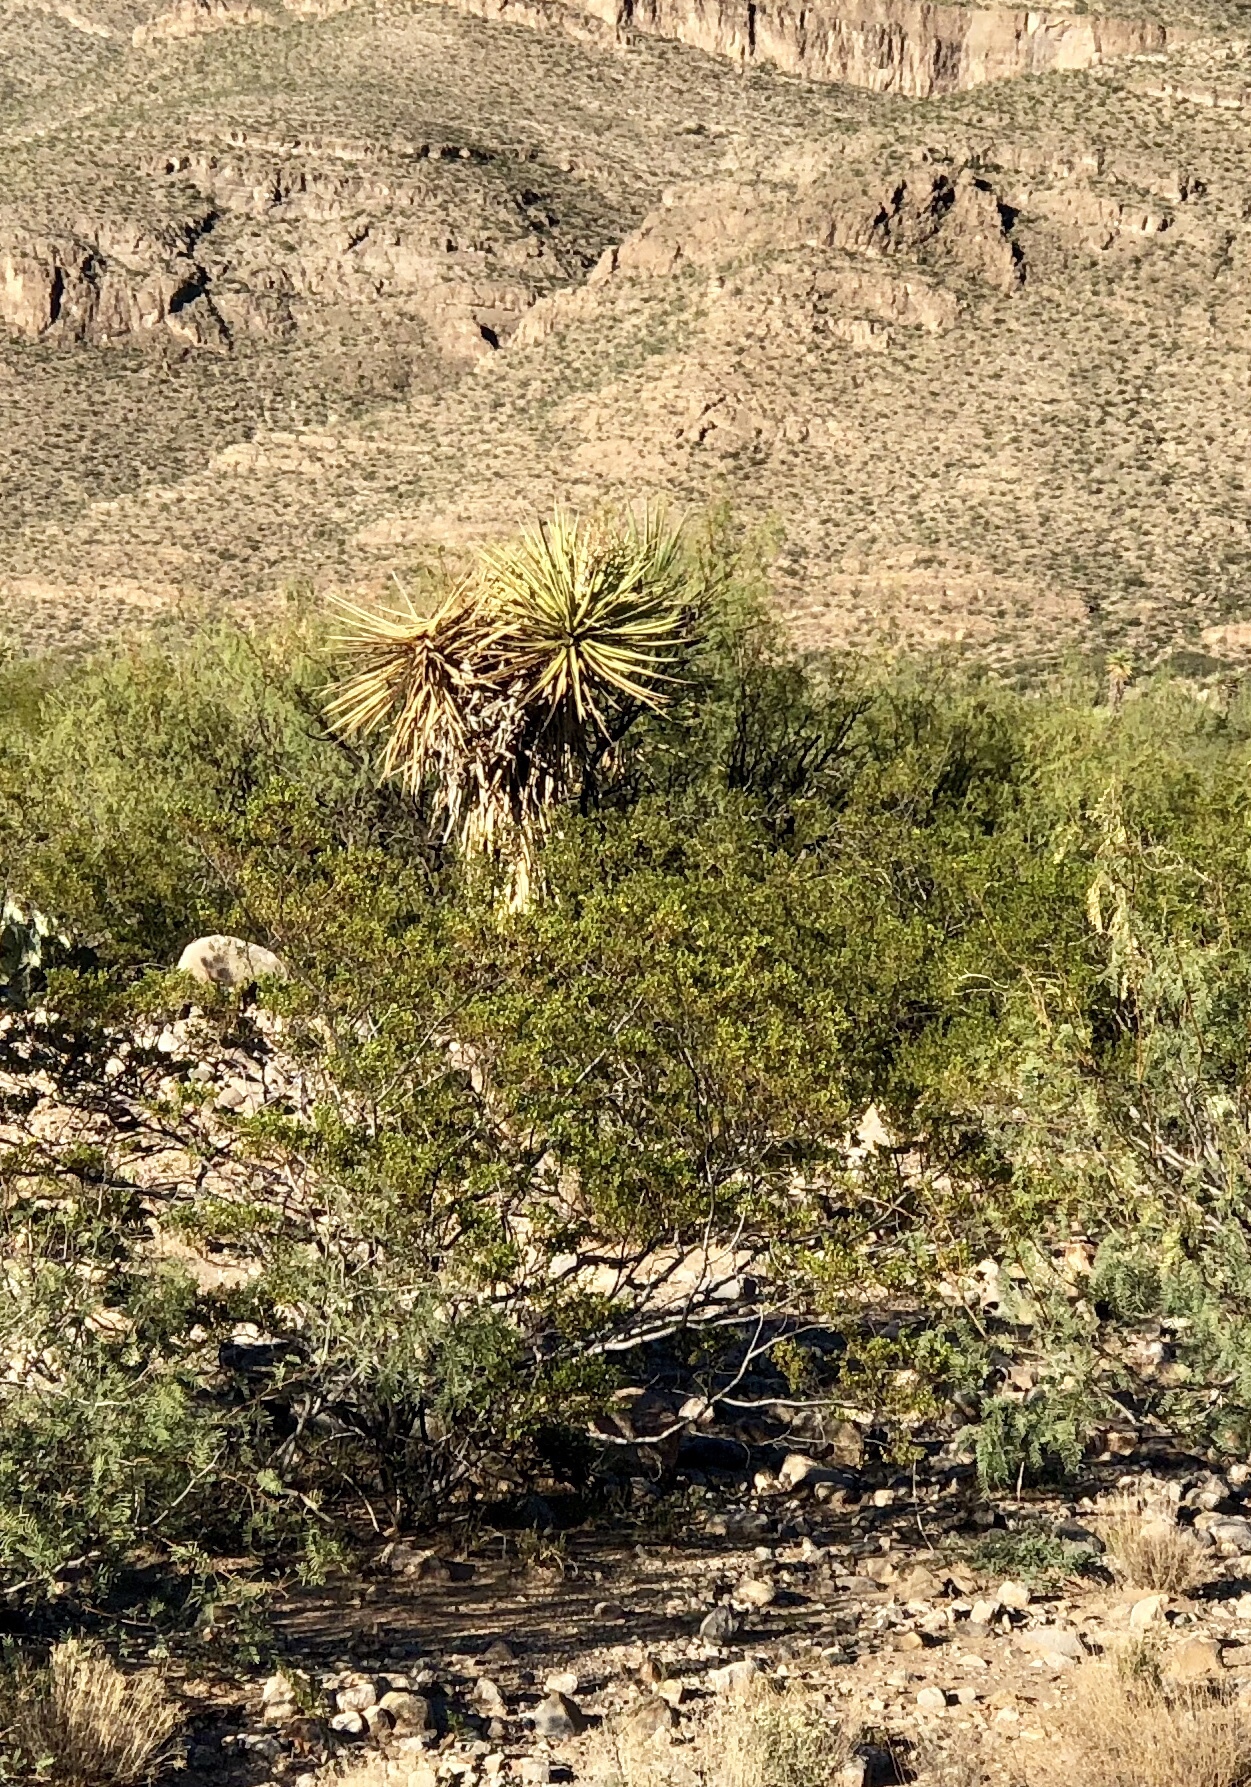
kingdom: Plantae
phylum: Tracheophyta
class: Magnoliopsida
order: Zygophyllales
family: Zygophyllaceae
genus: Larrea
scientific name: Larrea tridentata
